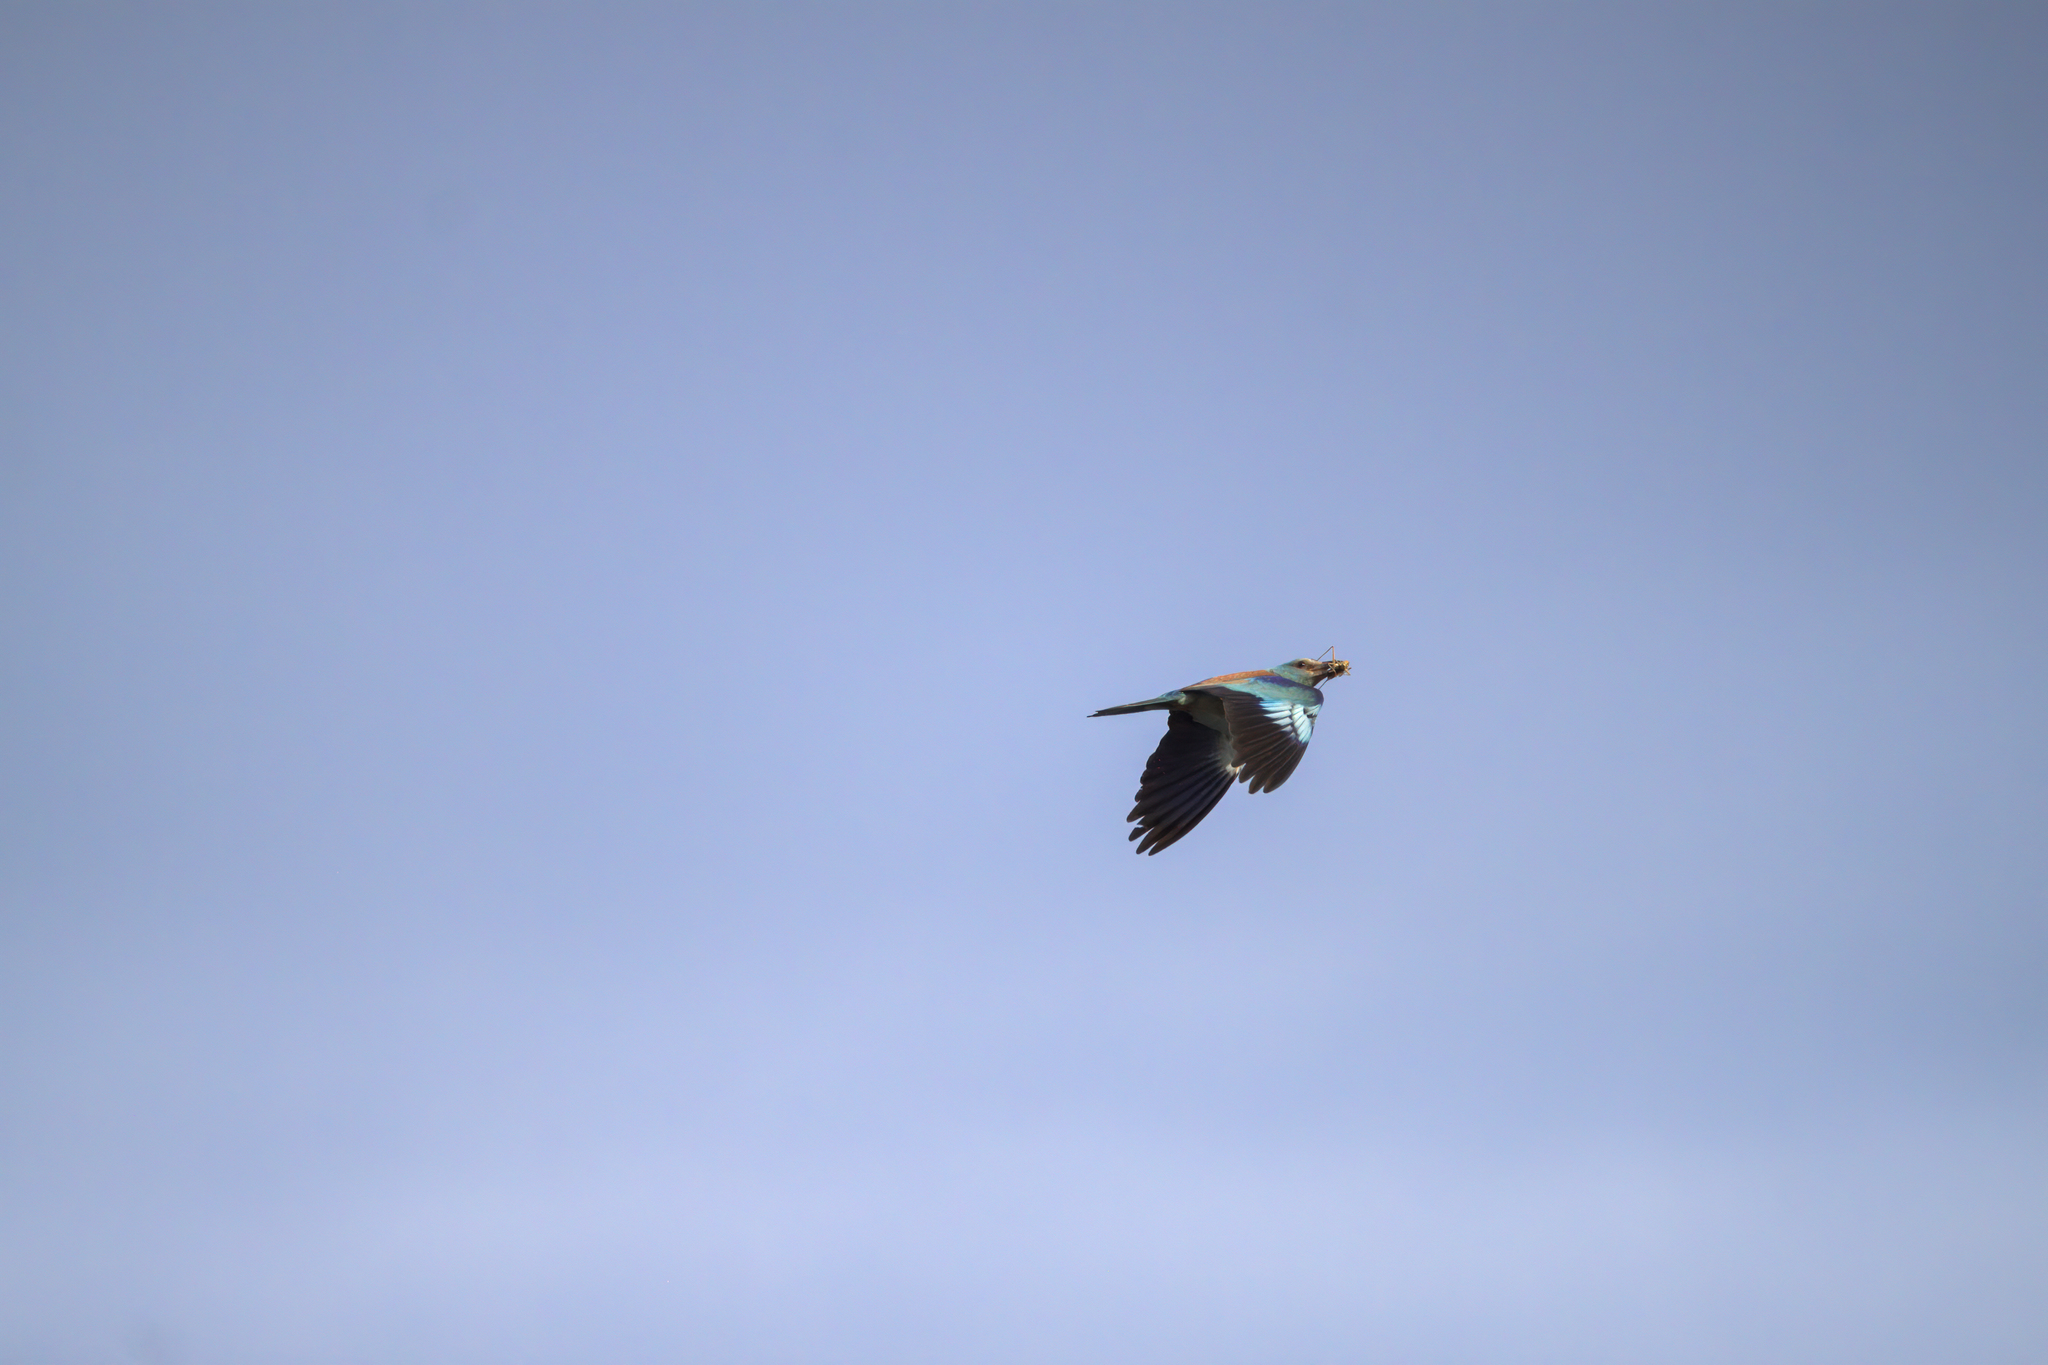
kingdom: Animalia
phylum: Chordata
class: Aves
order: Coraciiformes
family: Coraciidae
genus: Coracias
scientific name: Coracias garrulus
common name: European roller
